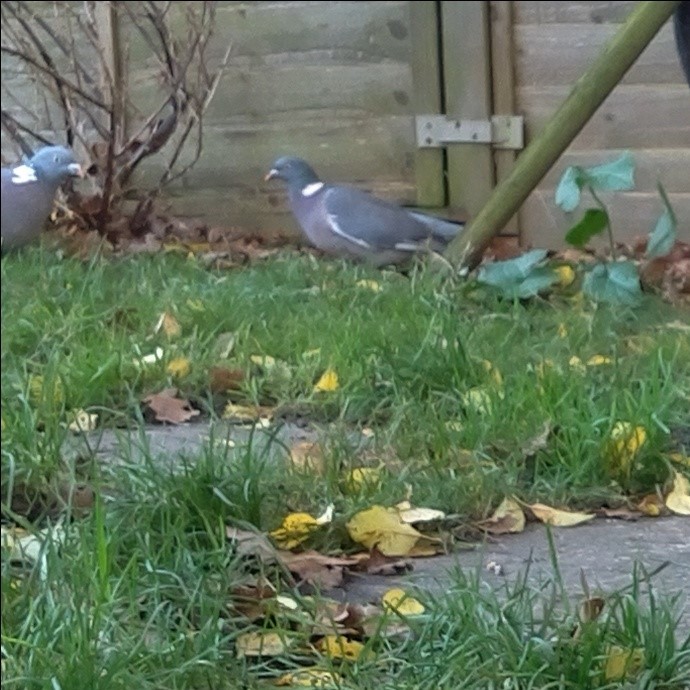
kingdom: Animalia
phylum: Chordata
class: Aves
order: Columbiformes
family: Columbidae
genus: Columba
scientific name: Columba palumbus
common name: Common wood pigeon
